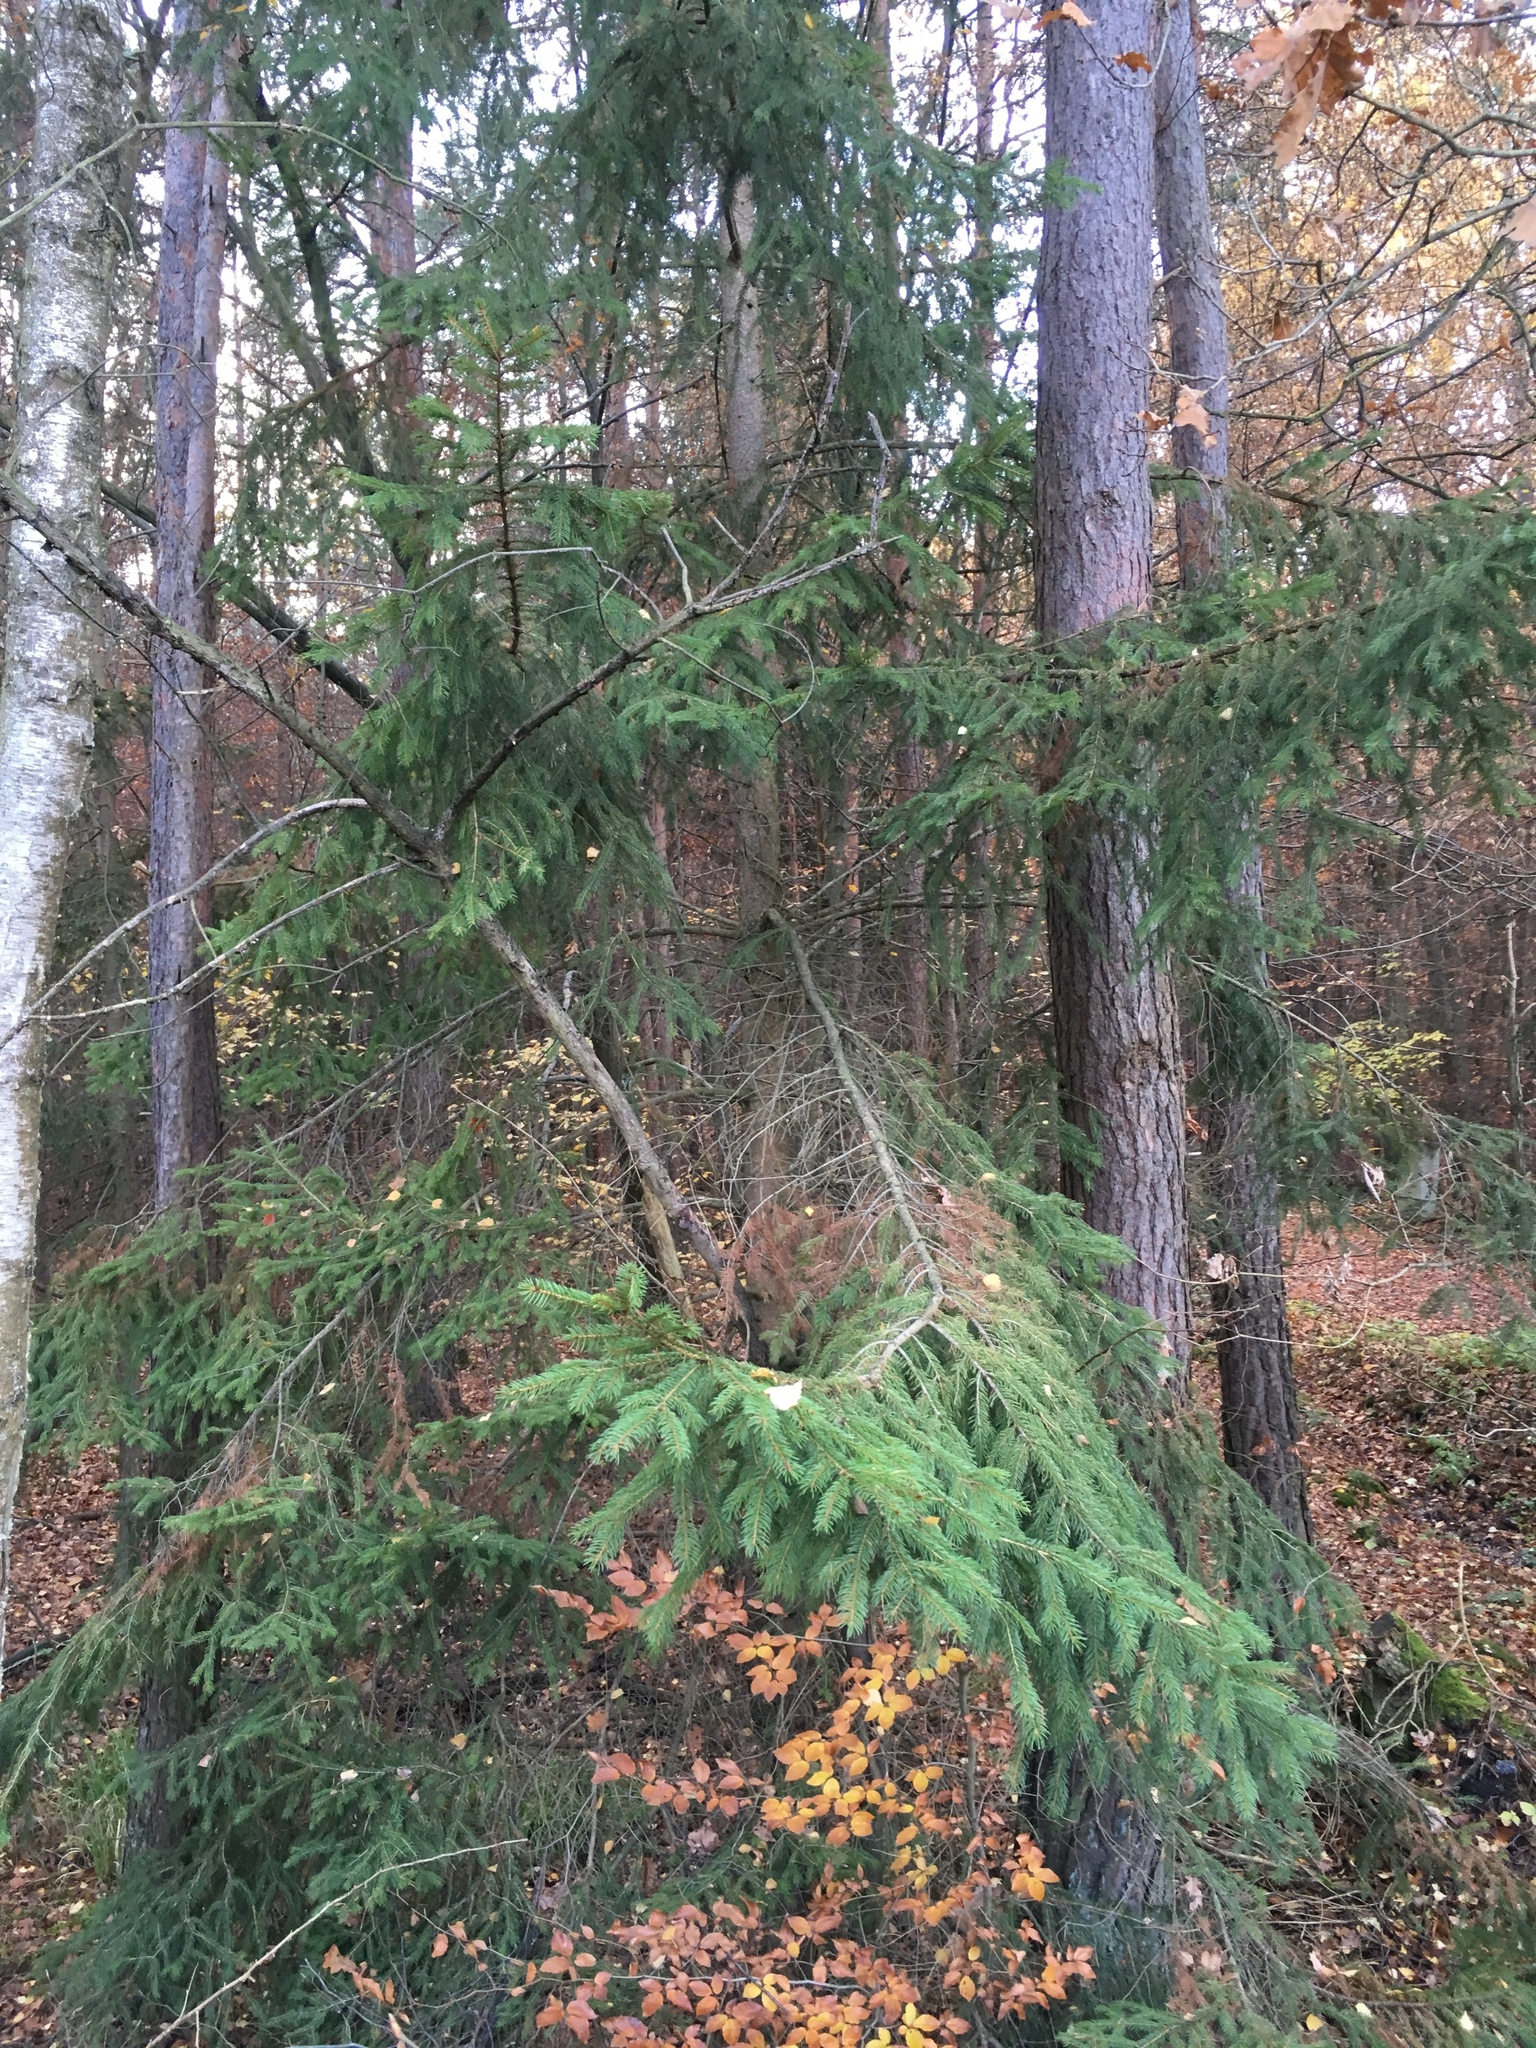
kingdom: Plantae
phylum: Tracheophyta
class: Pinopsida
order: Pinales
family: Pinaceae
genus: Picea
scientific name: Picea abies
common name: Norway spruce
